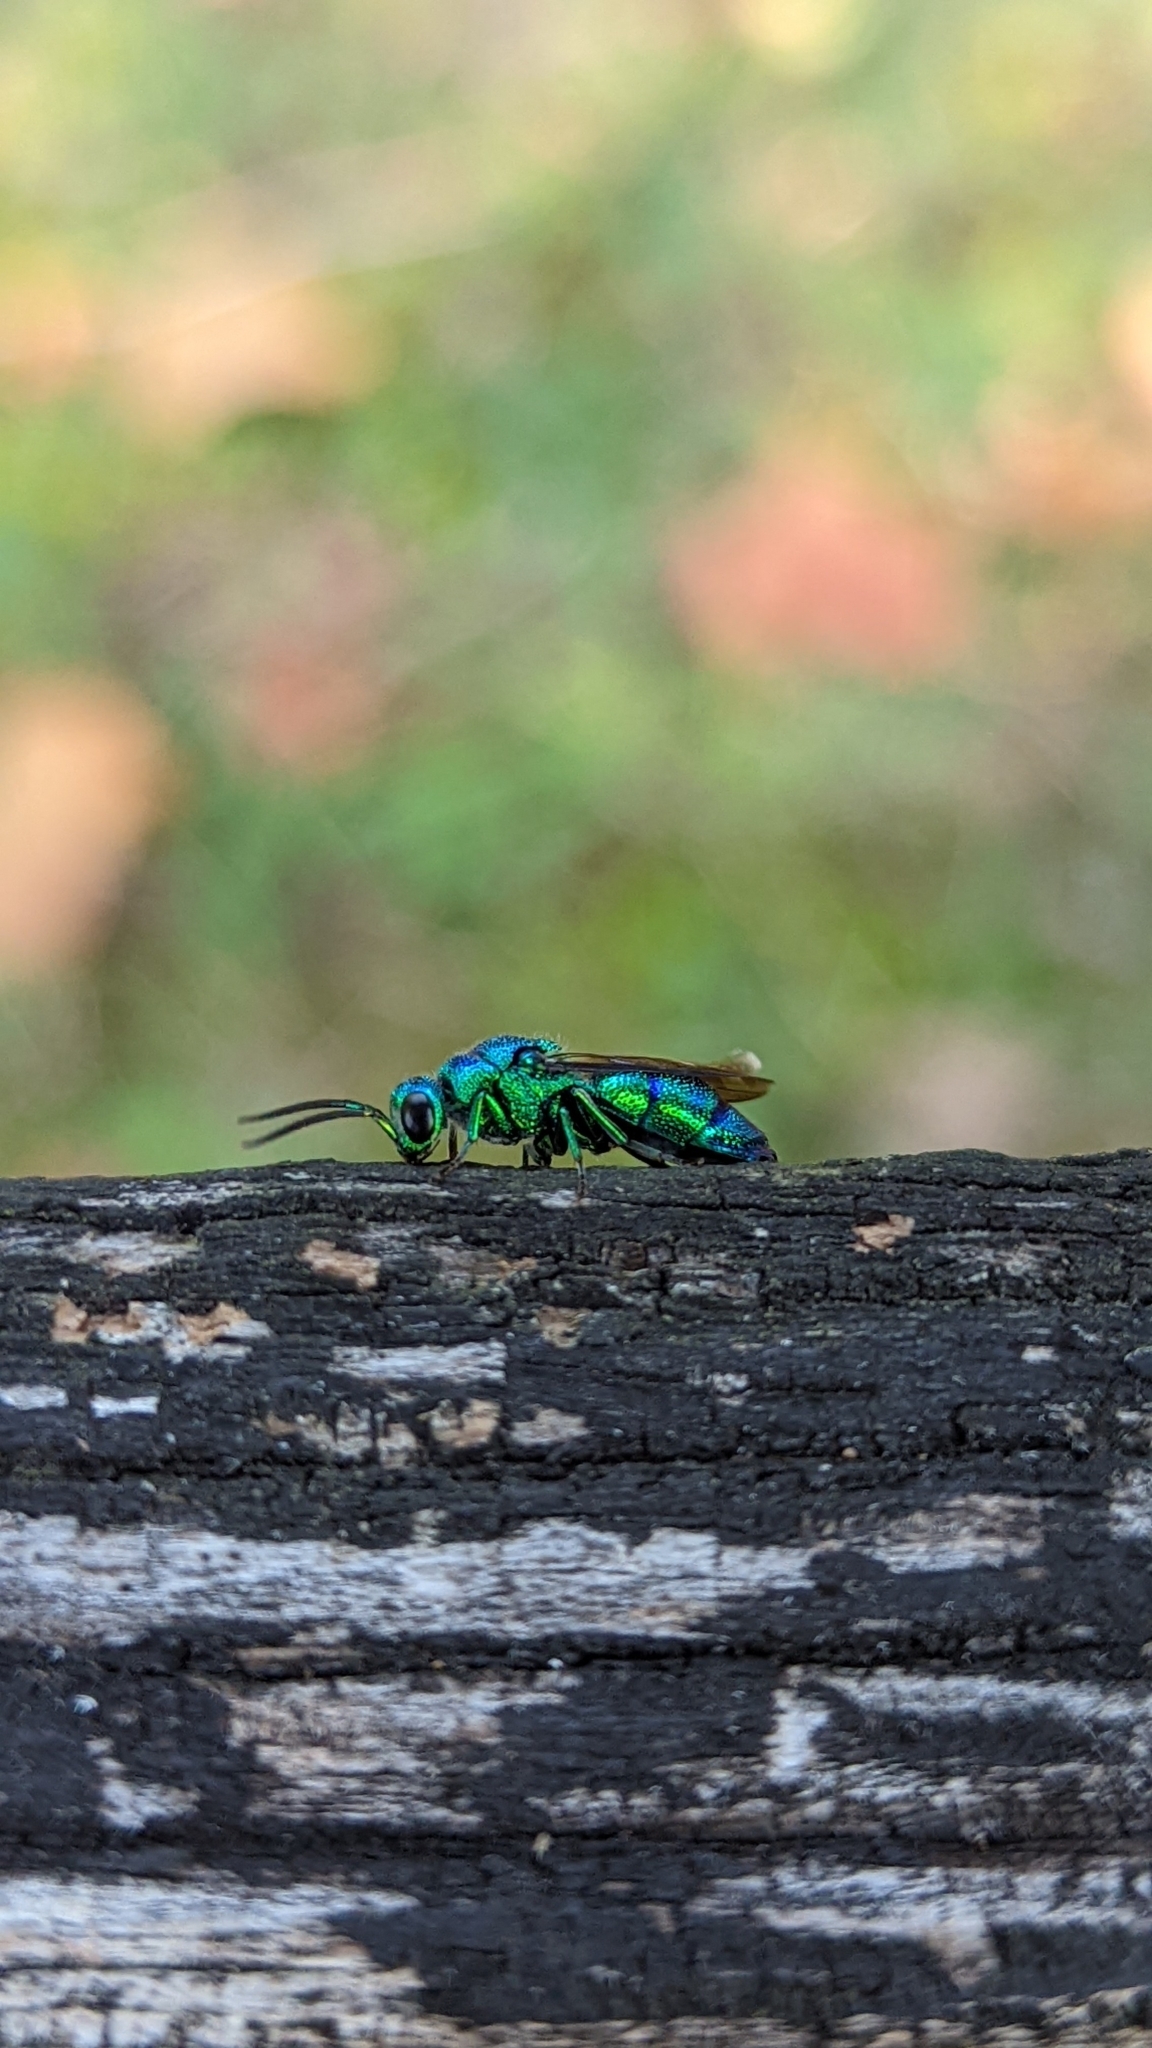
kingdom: Animalia
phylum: Arthropoda
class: Insecta
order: Hymenoptera
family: Chrysididae
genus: Chrysis
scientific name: Chrysis smaragdula
